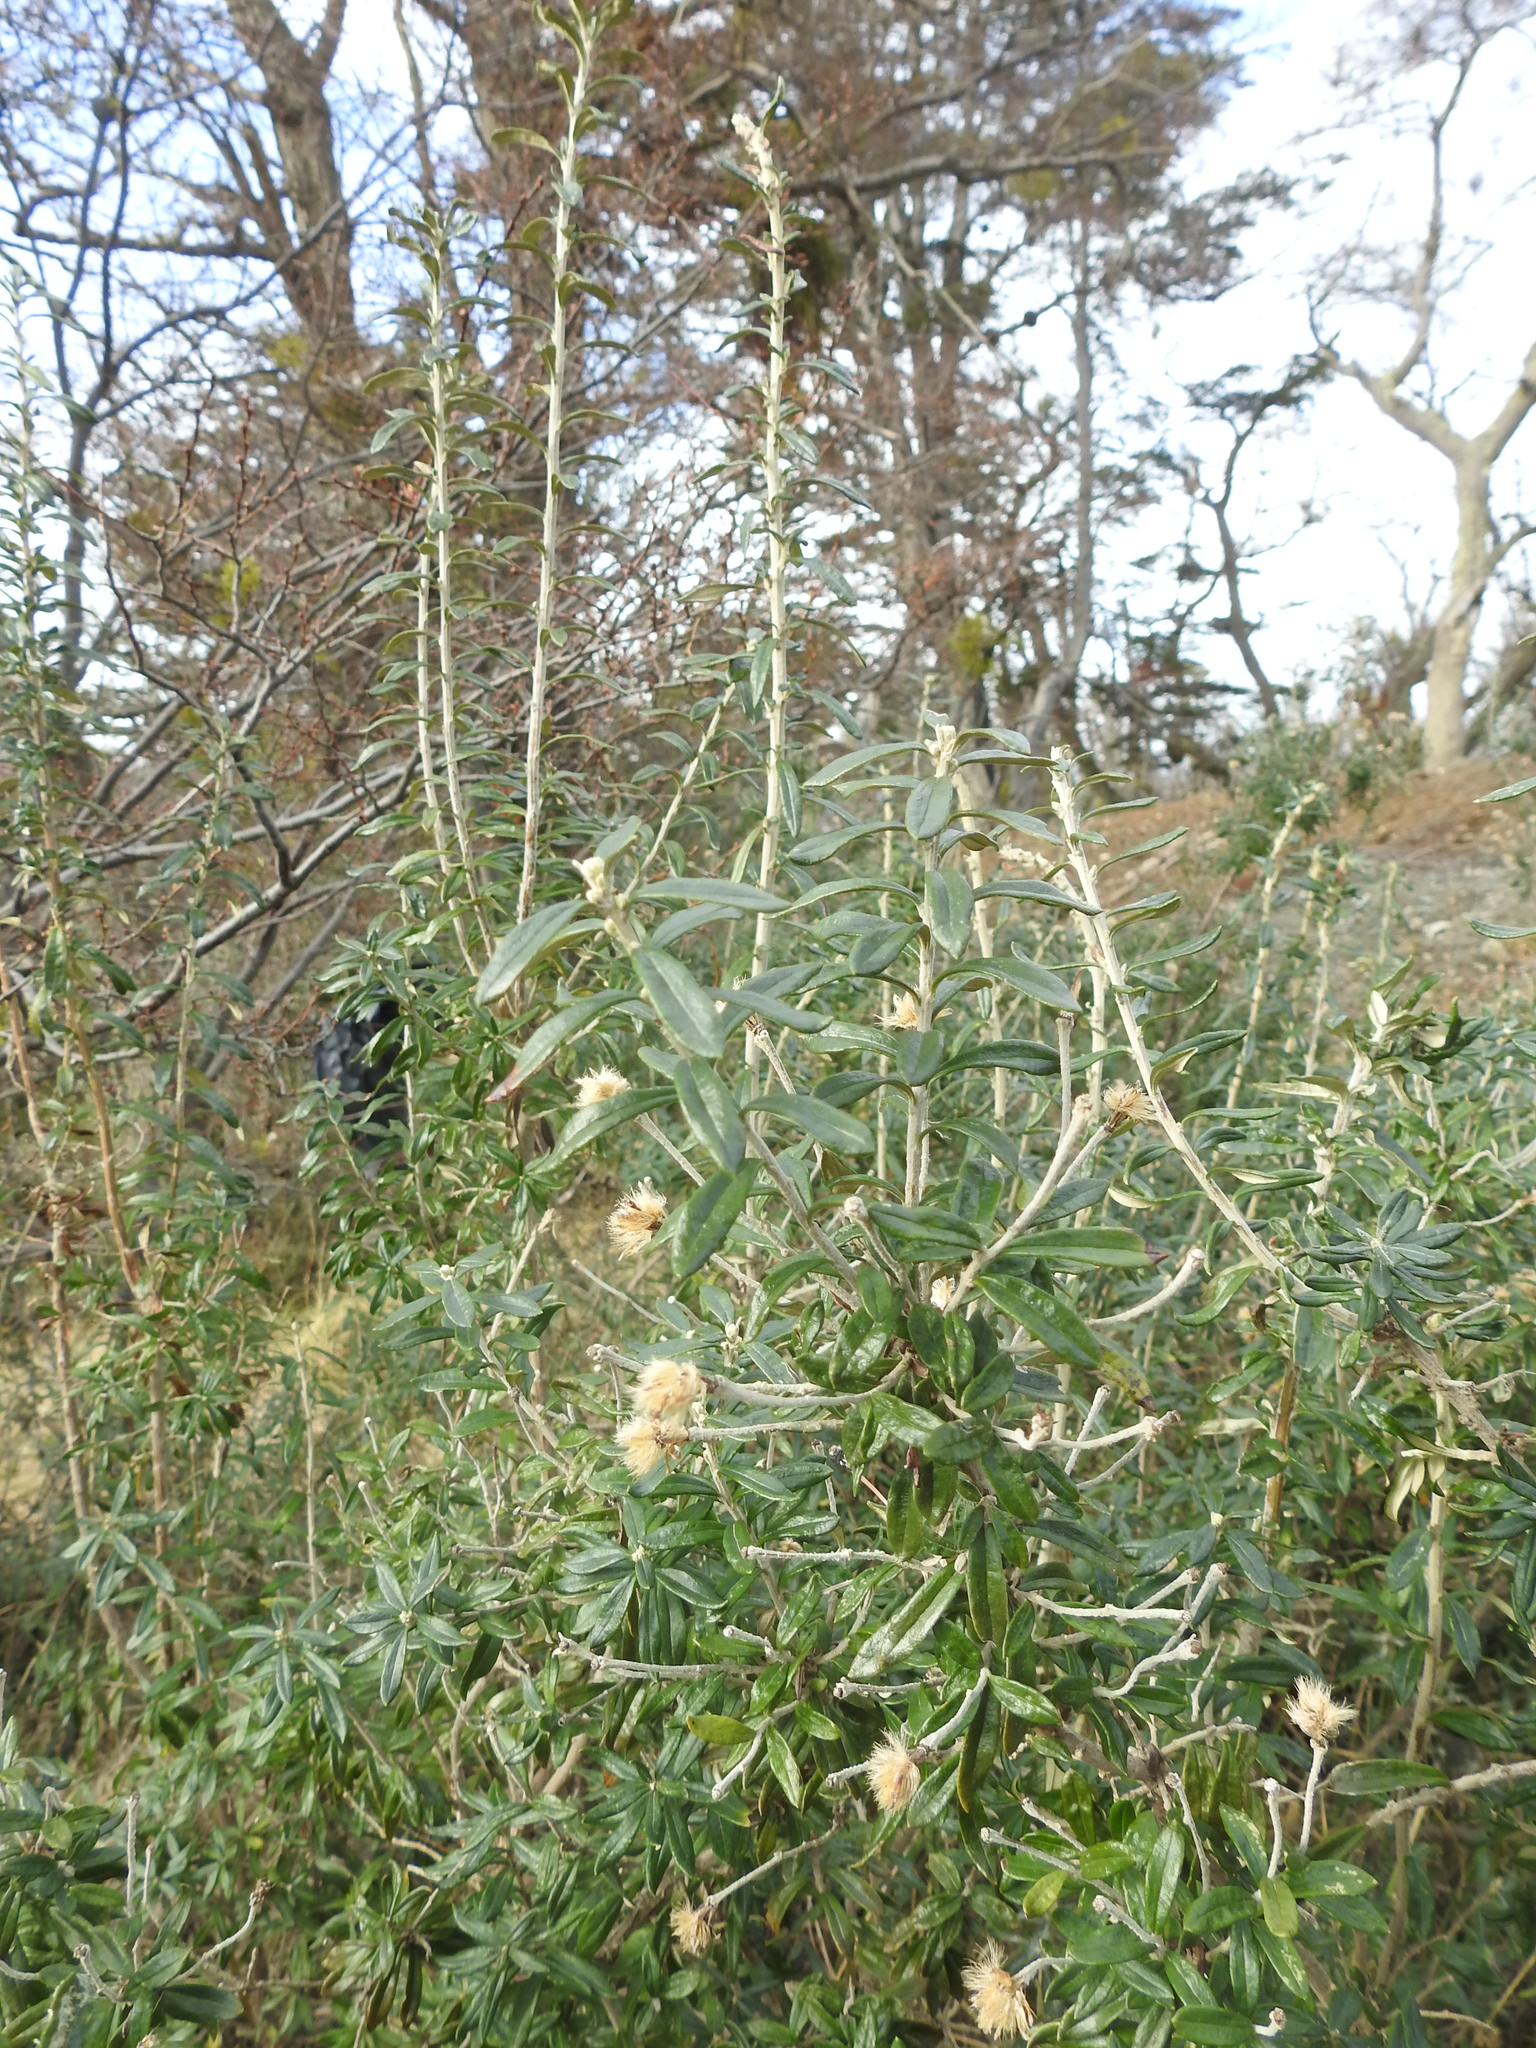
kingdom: Plantae
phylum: Tracheophyta
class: Magnoliopsida
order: Asterales
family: Asteraceae
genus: Chiliotrichum
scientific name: Chiliotrichum diffusum
